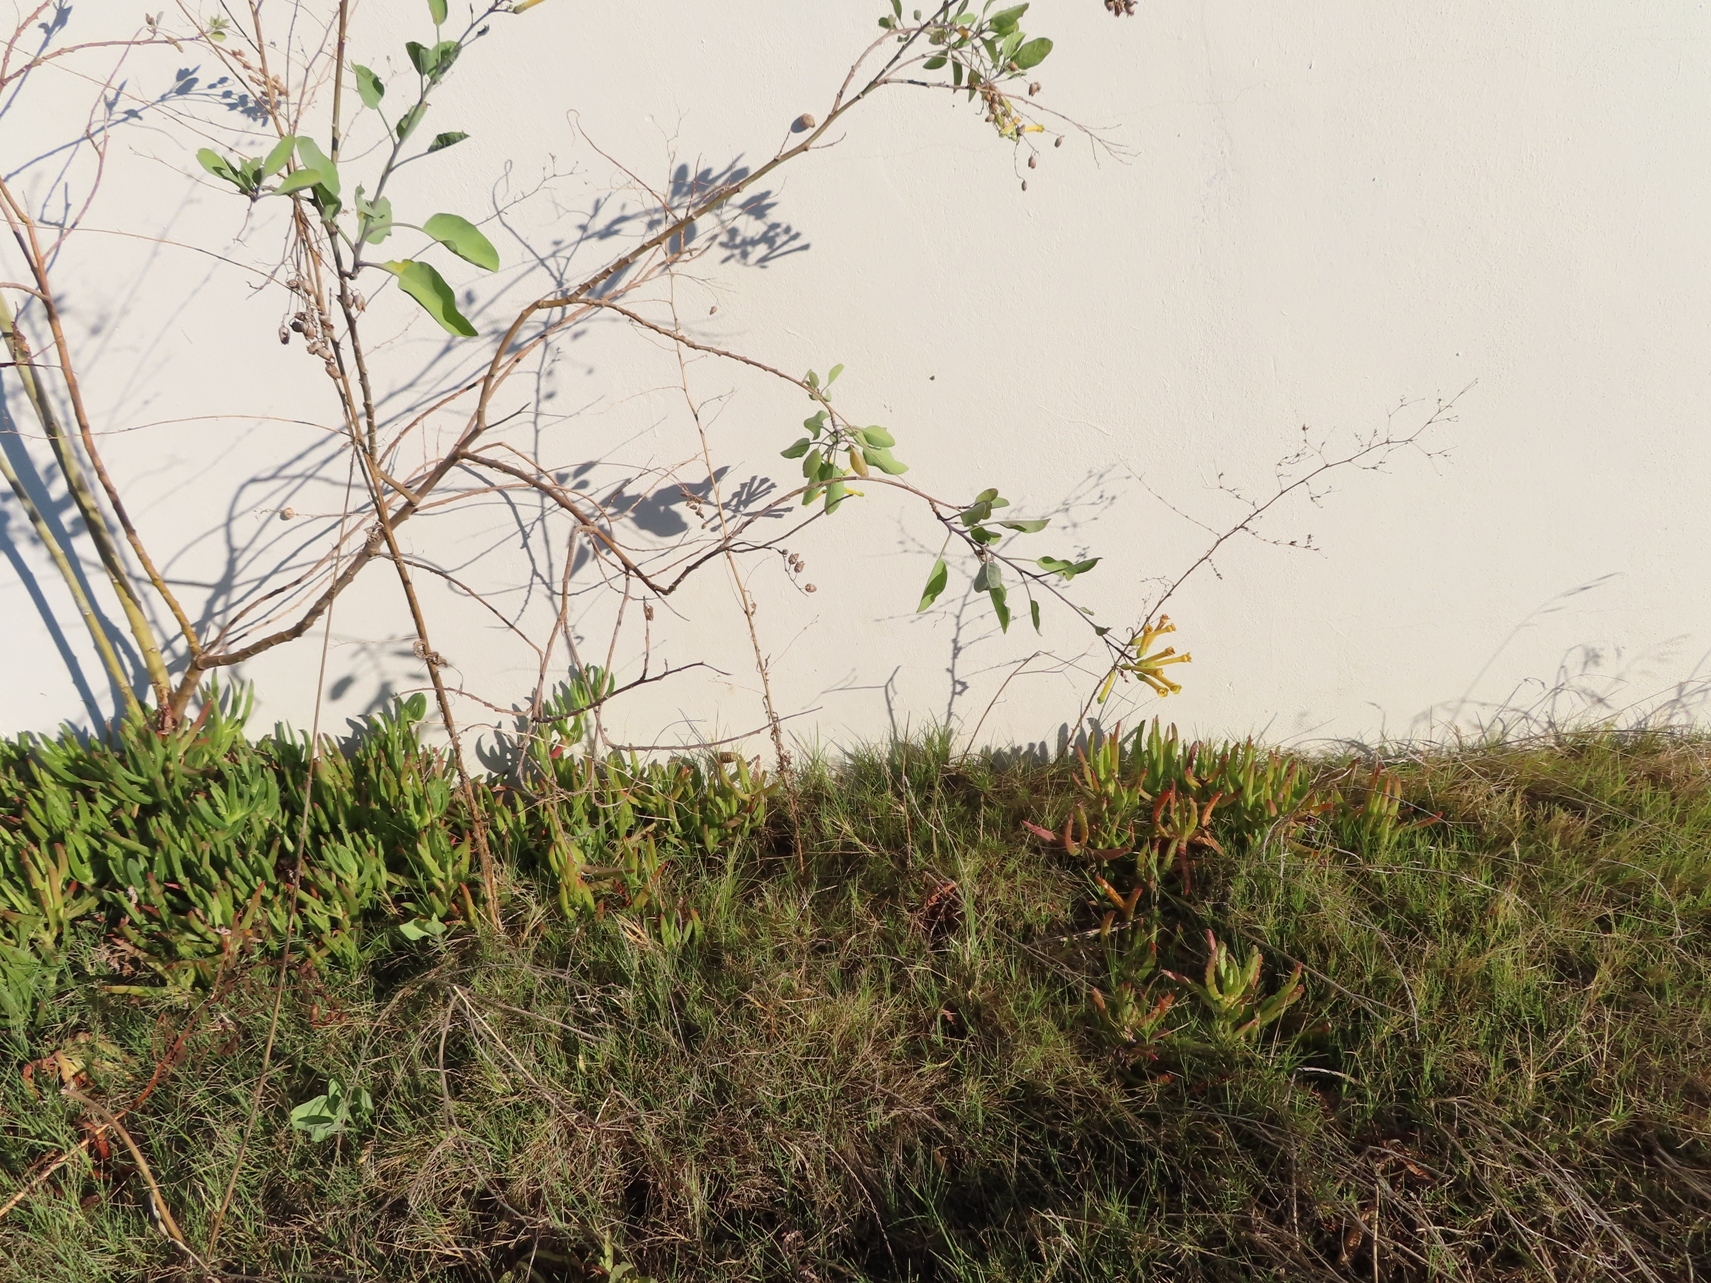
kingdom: Plantae
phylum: Tracheophyta
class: Magnoliopsida
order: Solanales
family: Solanaceae
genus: Nicotiana
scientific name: Nicotiana glauca
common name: Tree tobacco
